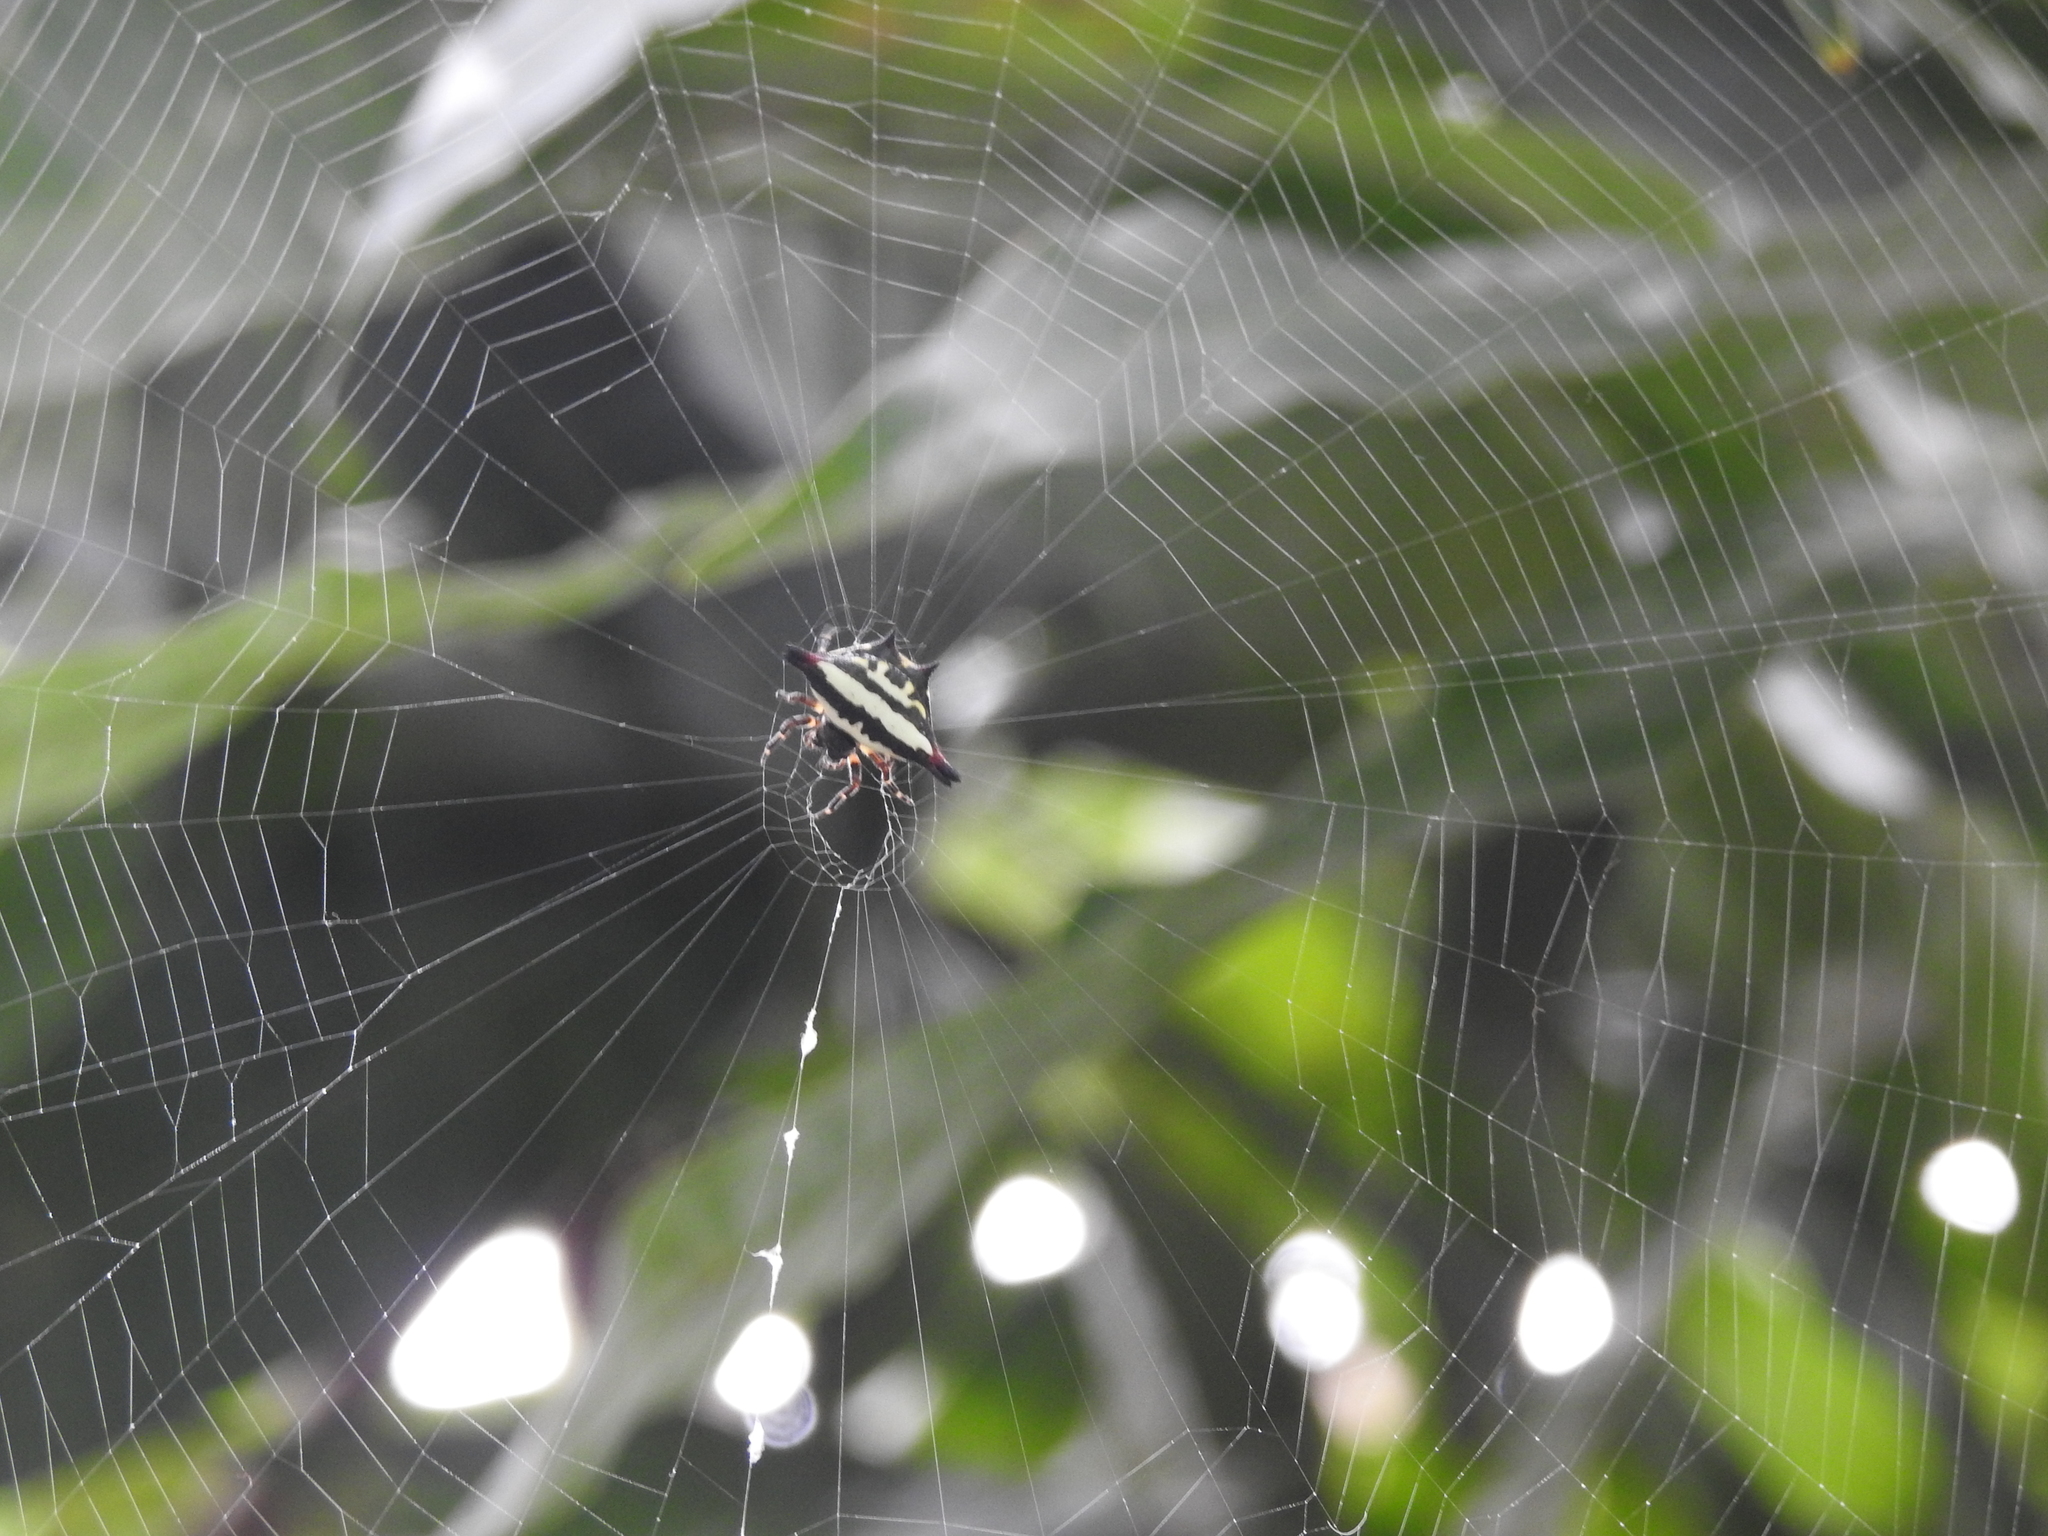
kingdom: Animalia
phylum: Arthropoda
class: Arachnida
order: Araneae
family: Araneidae
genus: Gasteracantha
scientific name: Gasteracantha geminata
